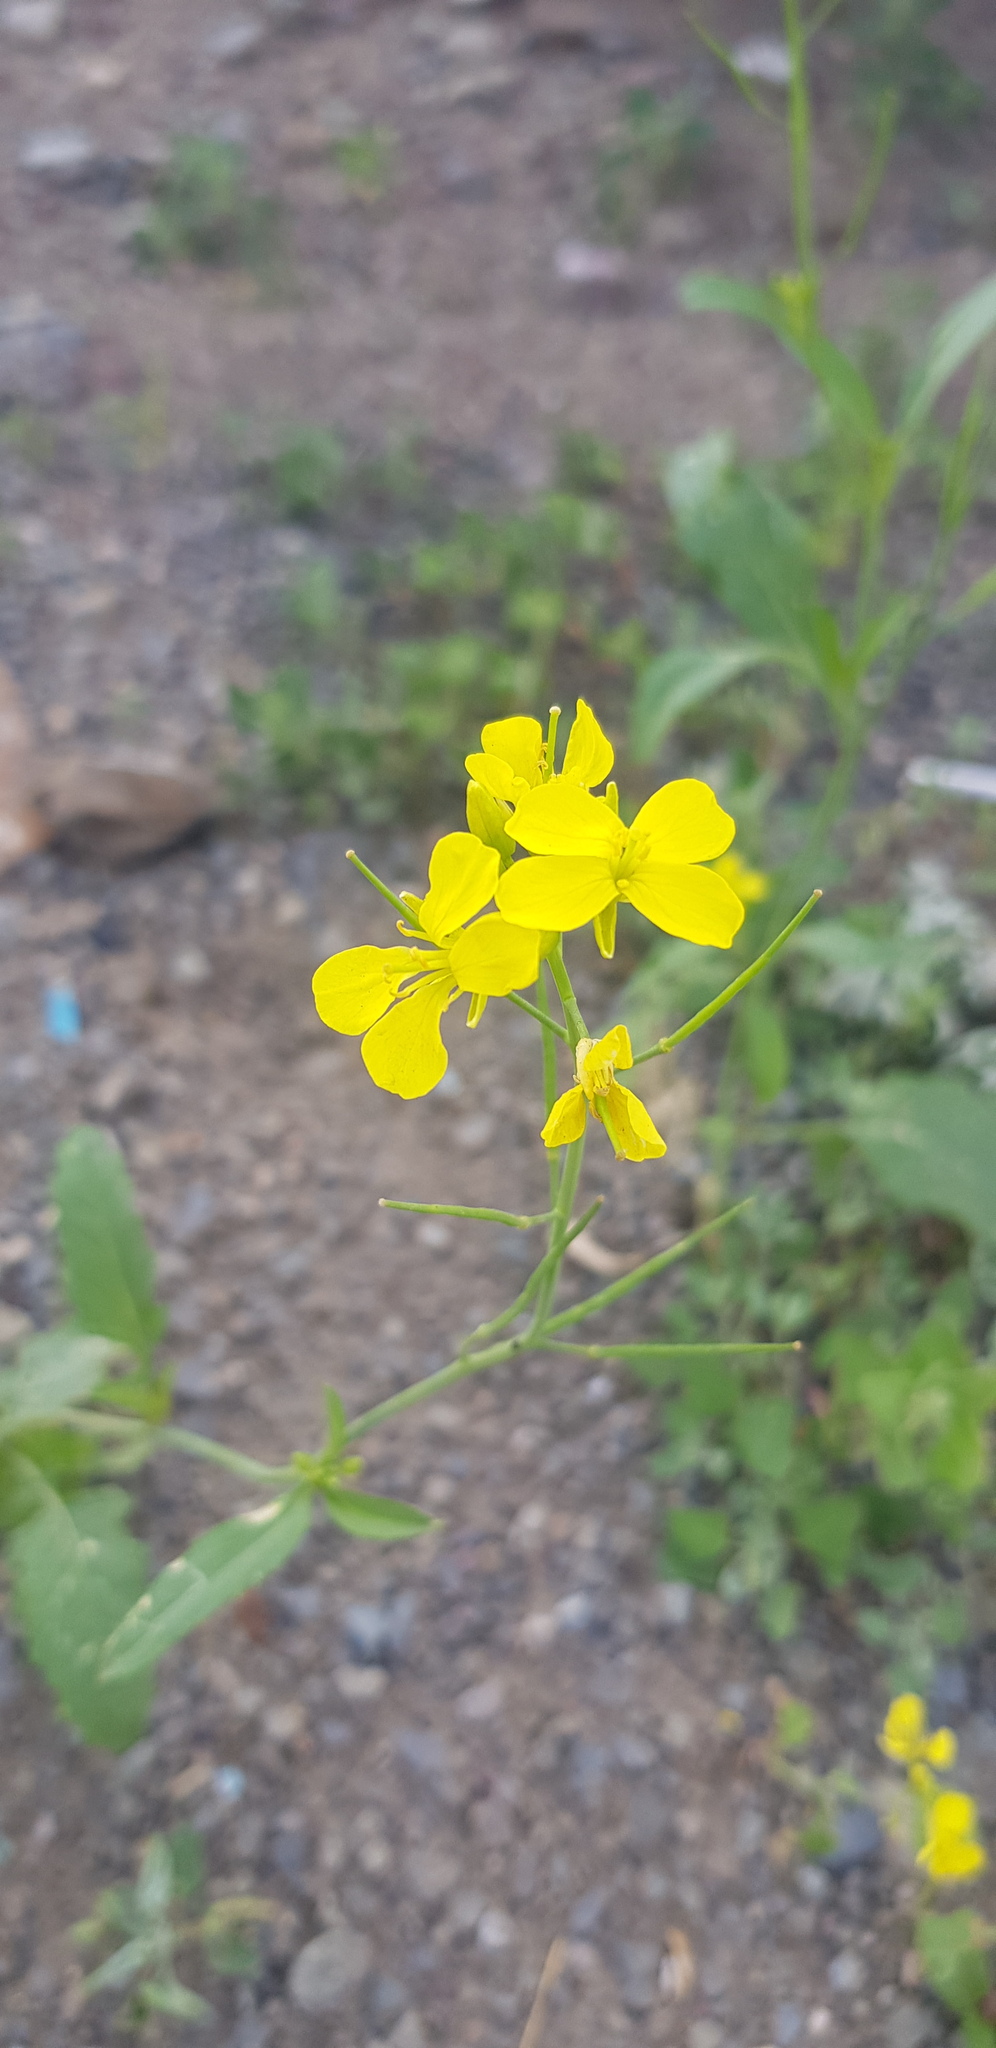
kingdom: Plantae
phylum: Tracheophyta
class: Magnoliopsida
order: Brassicales
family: Brassicaceae
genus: Brassica
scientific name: Brassica rapa
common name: Field mustard
